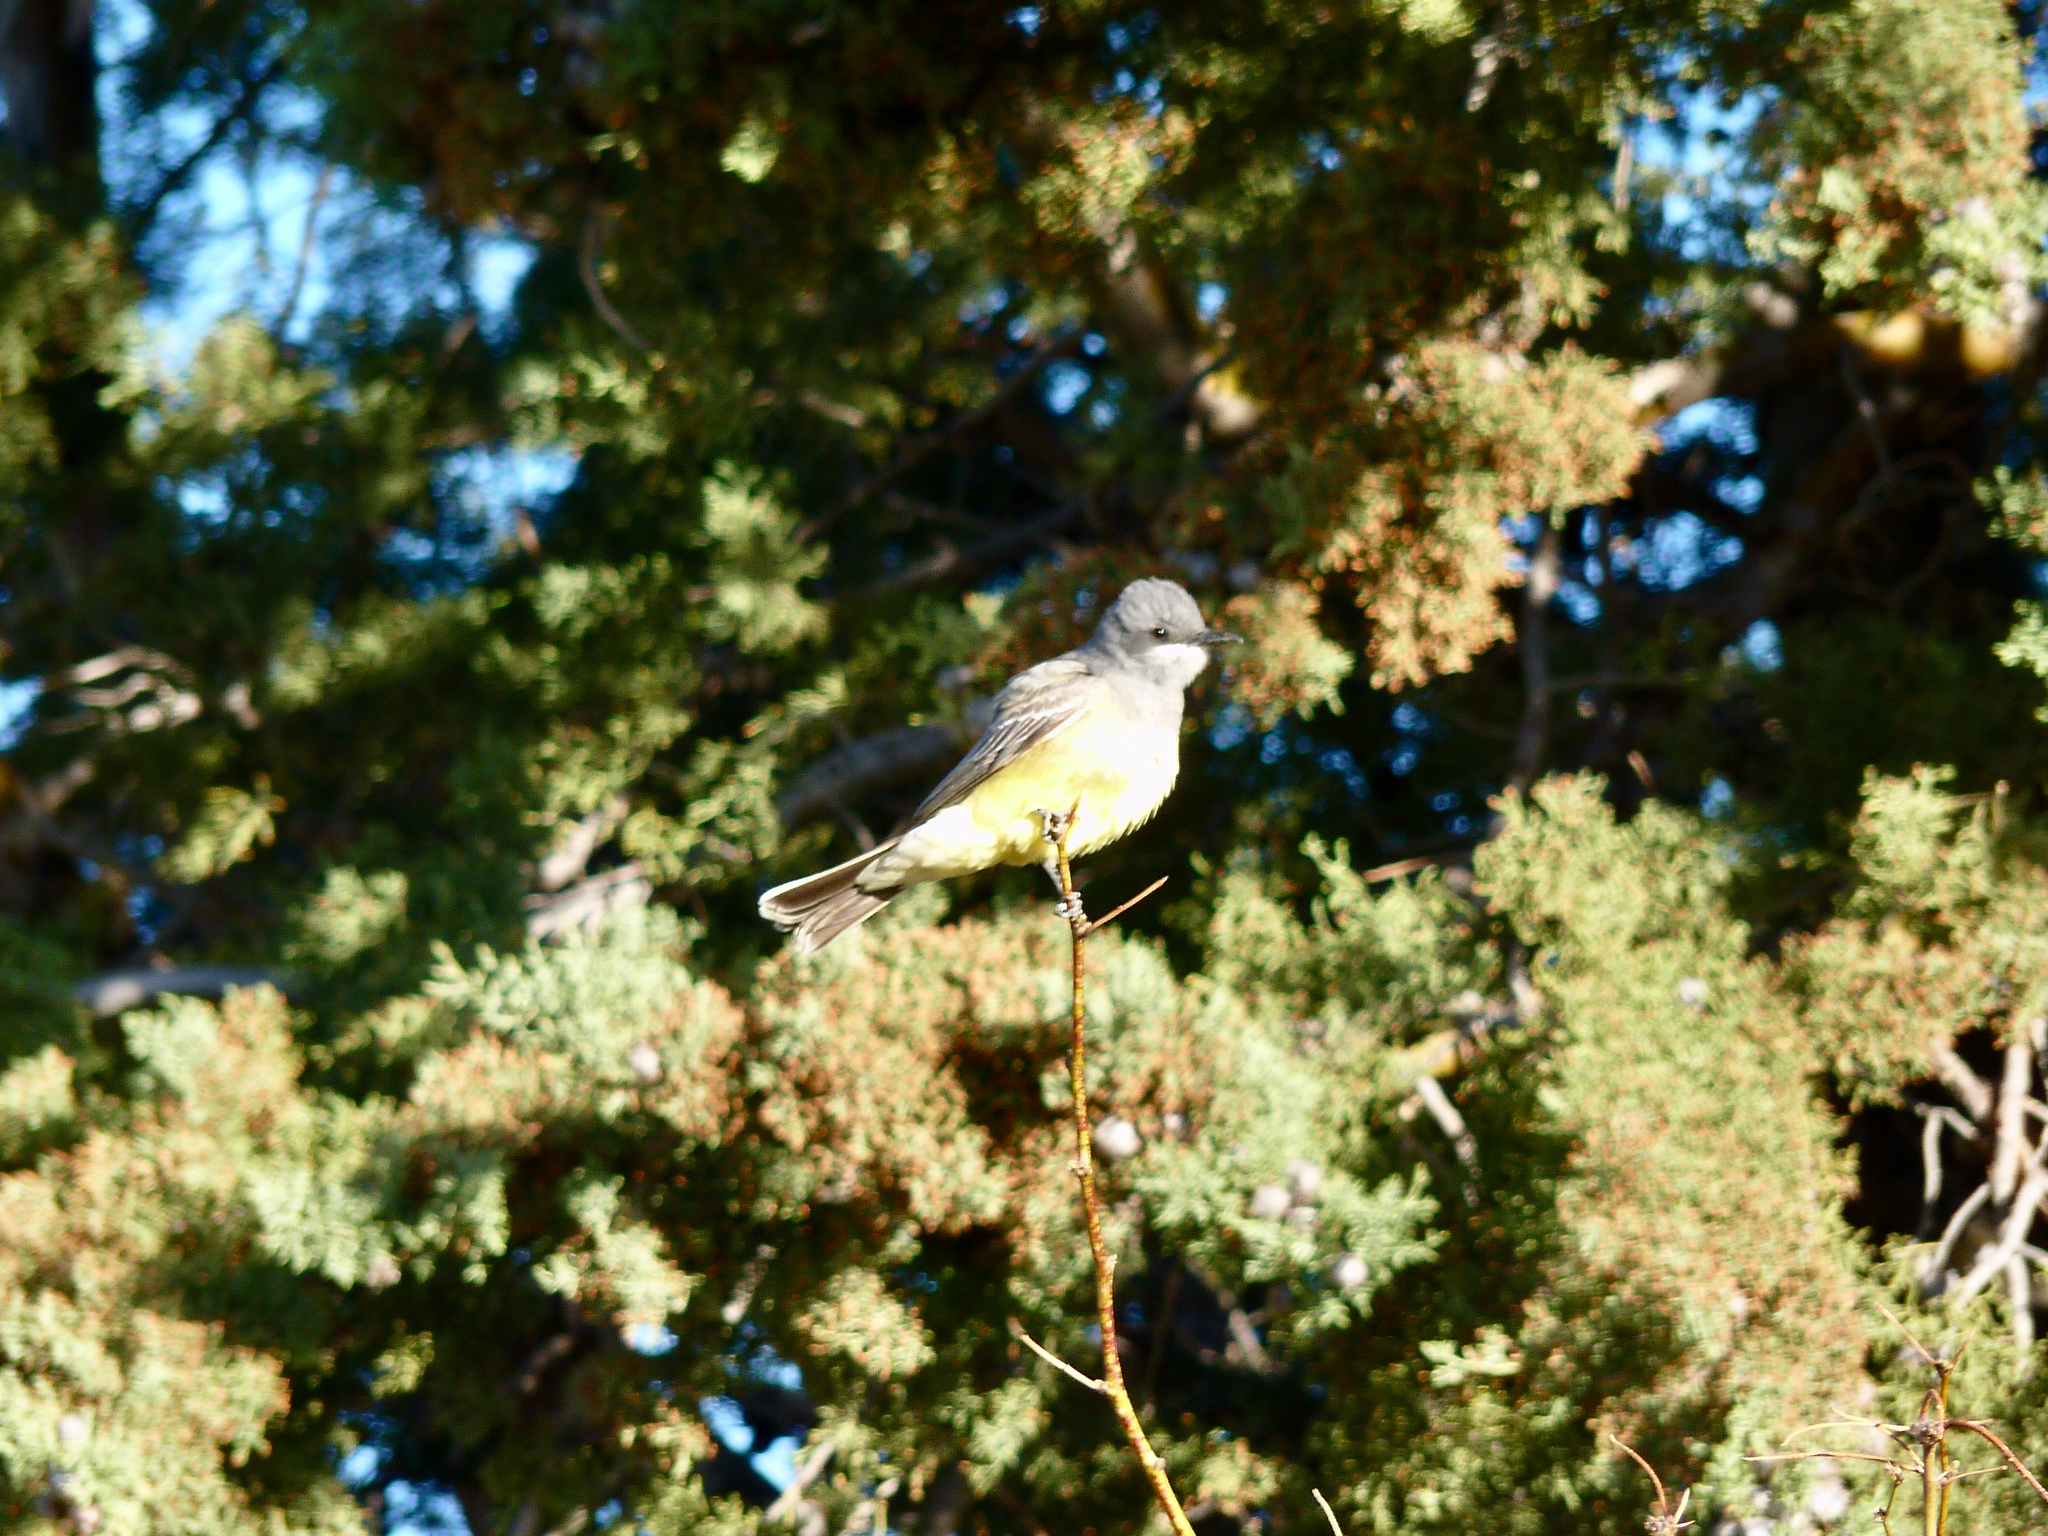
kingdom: Animalia
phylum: Chordata
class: Aves
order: Passeriformes
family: Tyrannidae
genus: Tyrannus
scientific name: Tyrannus verticalis
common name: Western kingbird
